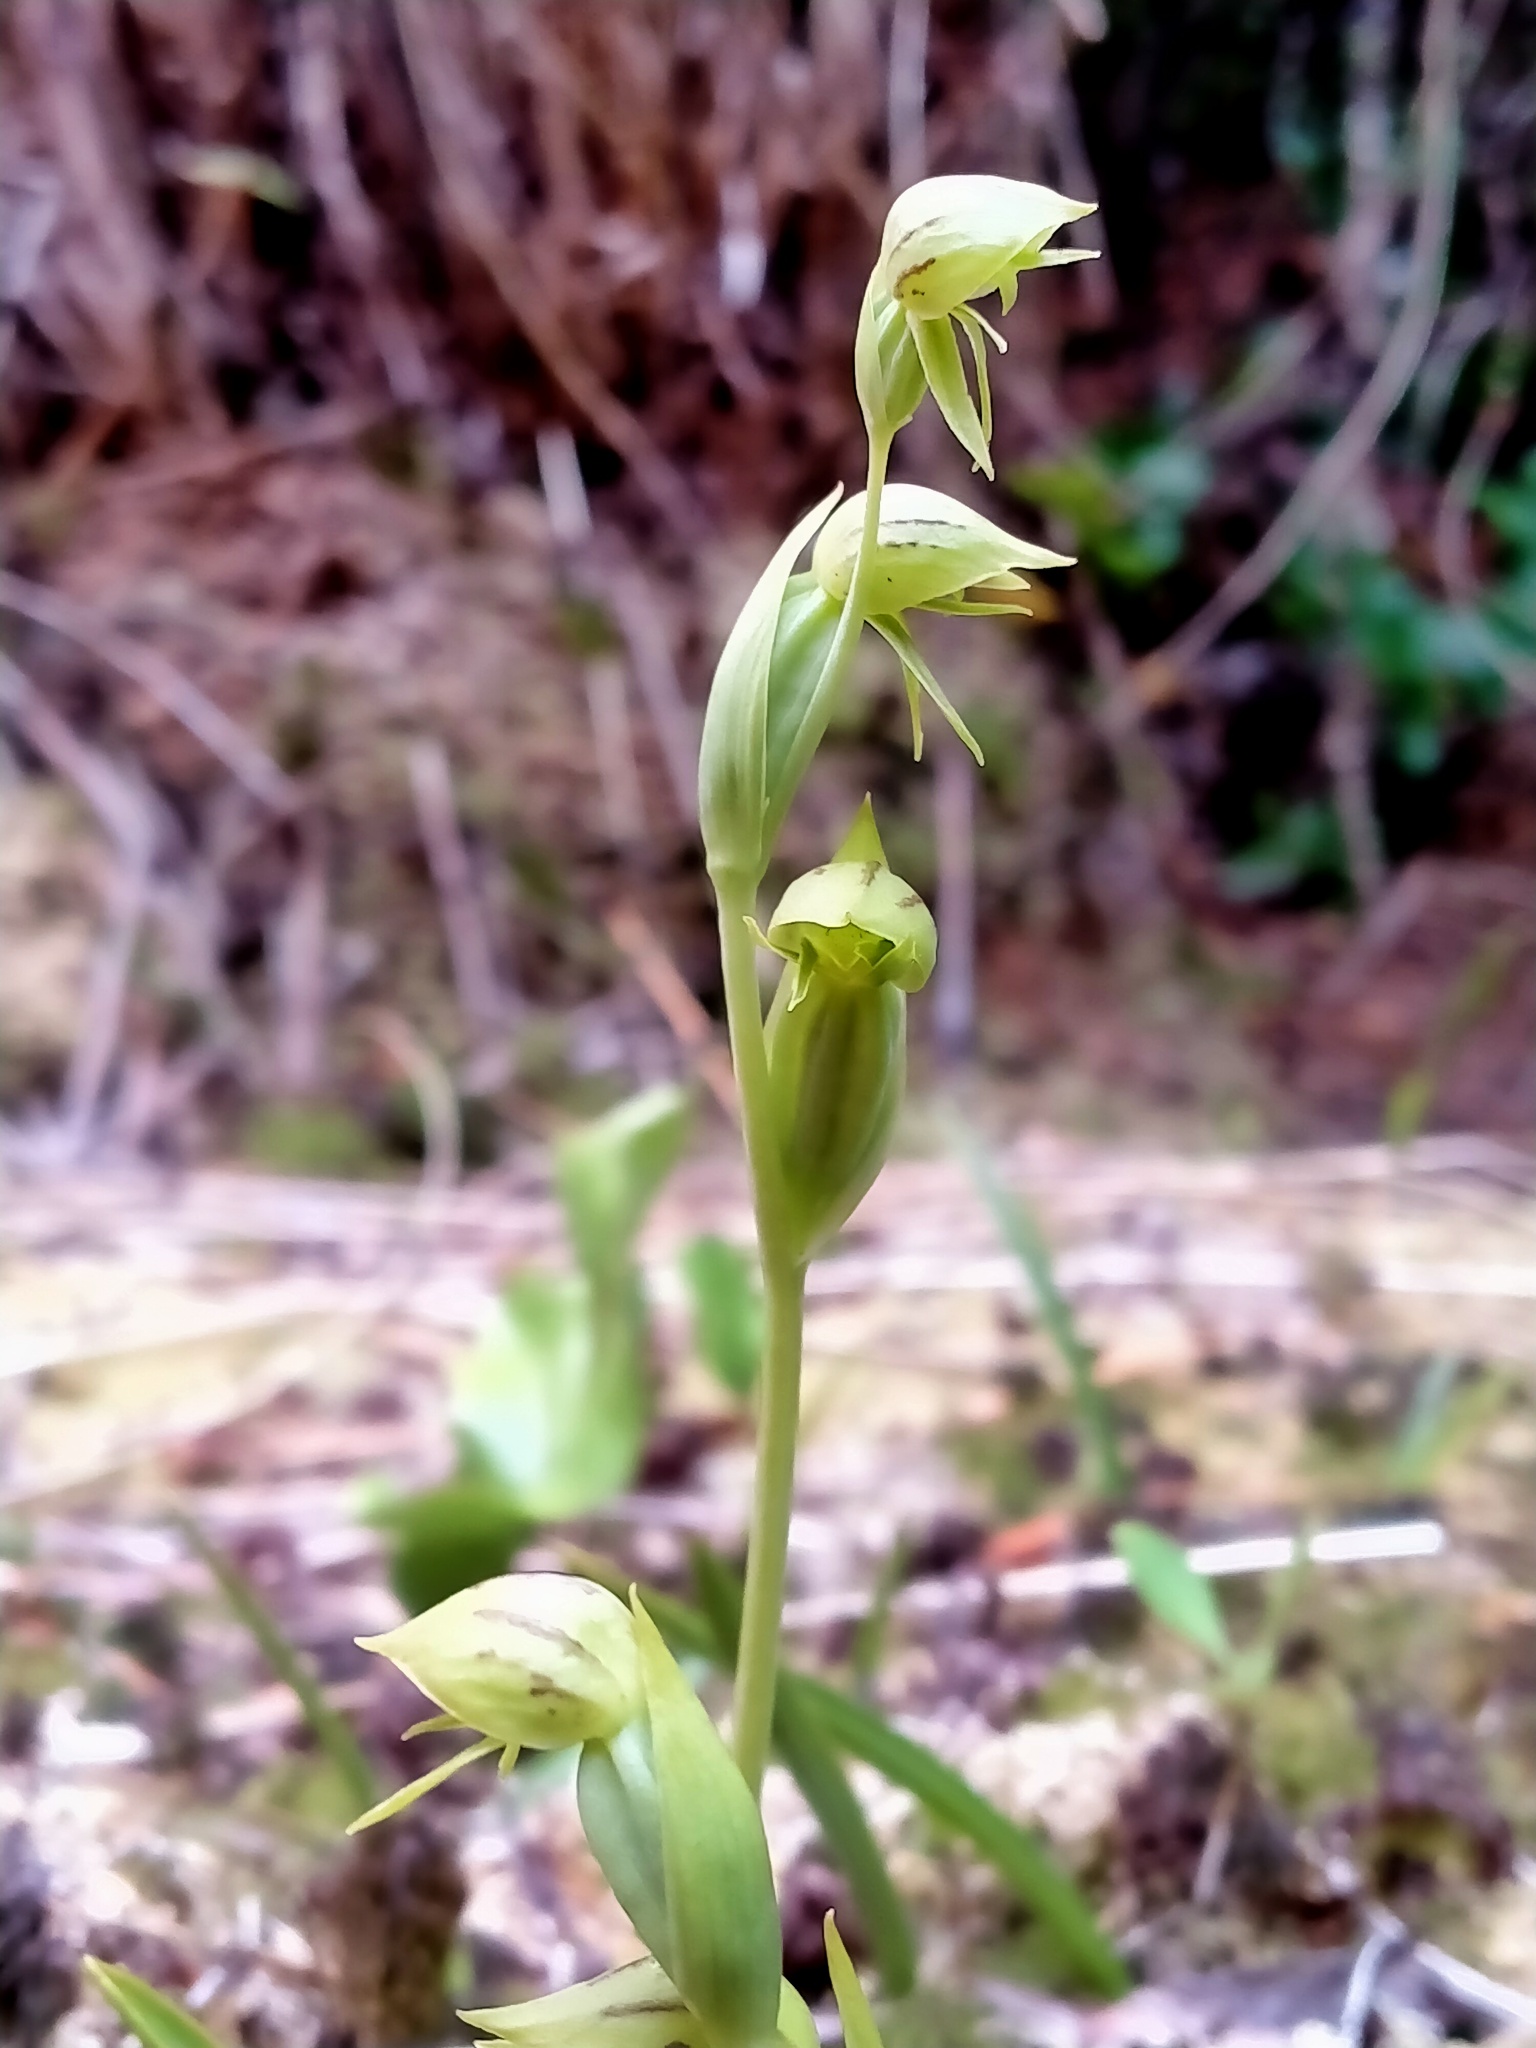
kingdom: Plantae
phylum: Tracheophyta
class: Liliopsida
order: Asparagales
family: Orchidaceae
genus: Waireia
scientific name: Waireia stenopetala
